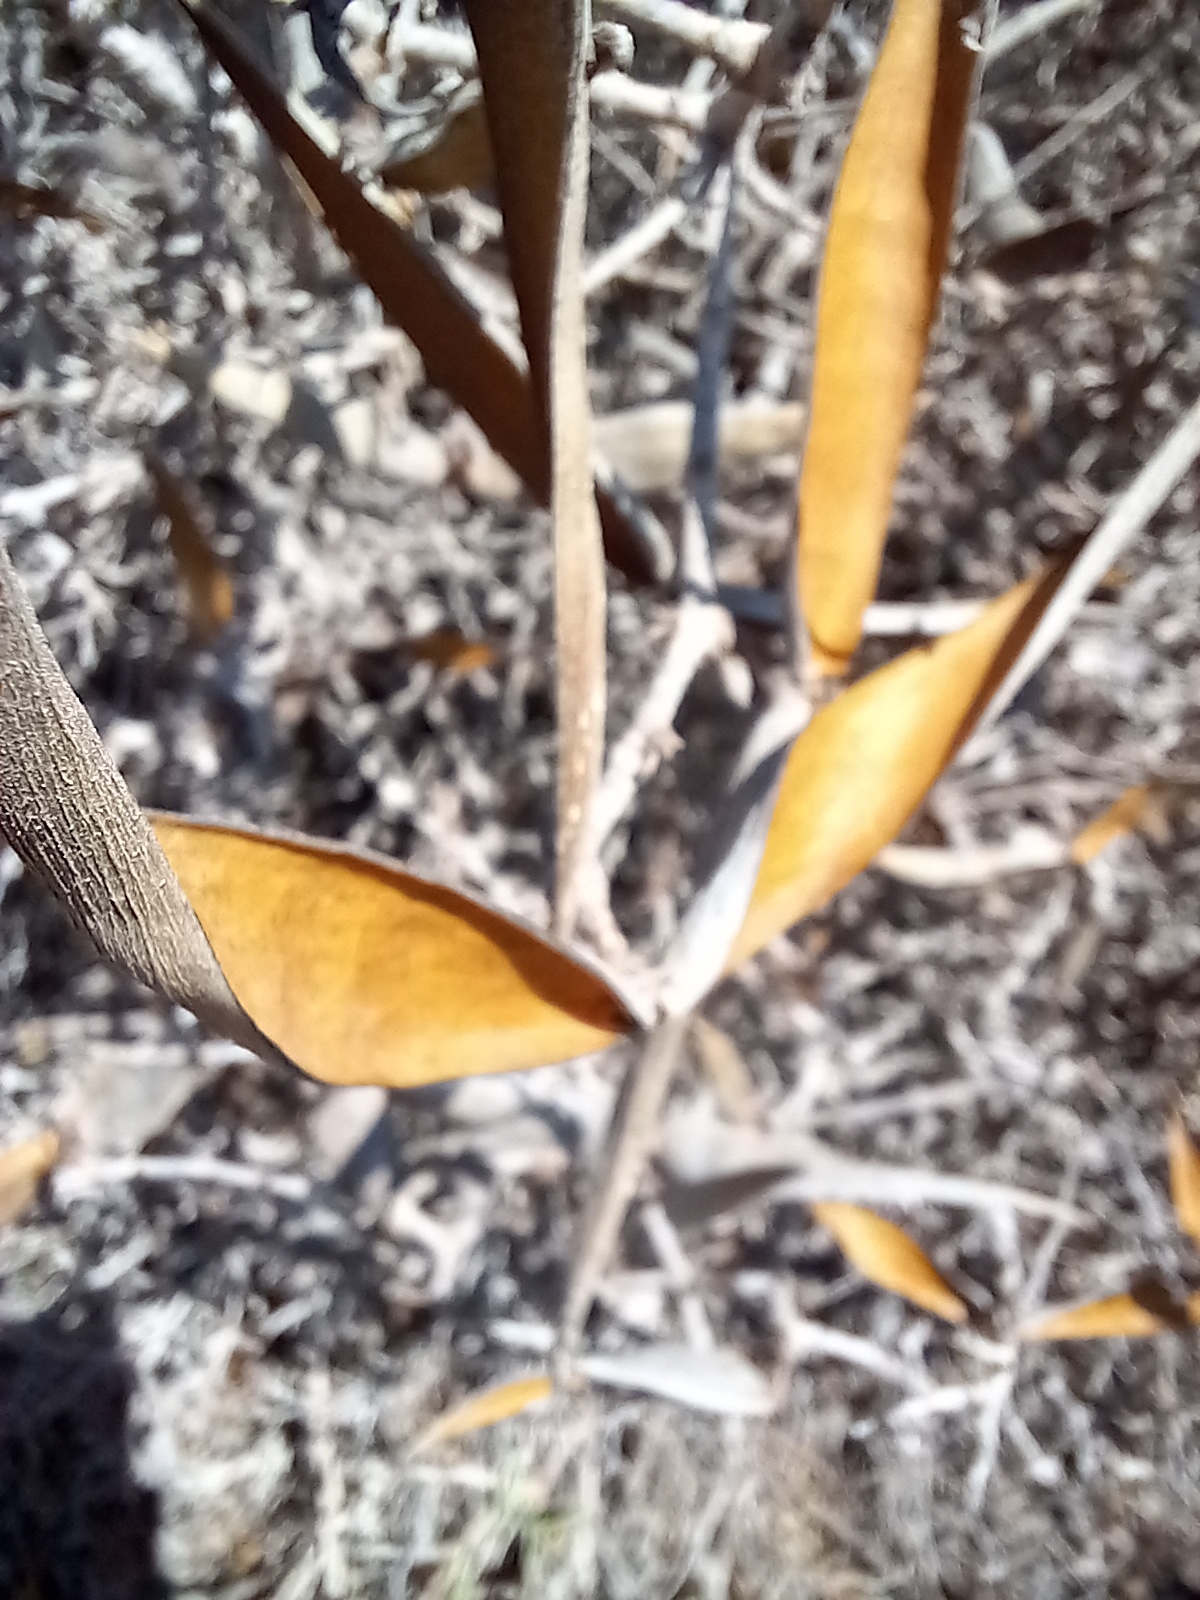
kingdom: Plantae
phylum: Tracheophyta
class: Magnoliopsida
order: Gentianales
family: Apocynaceae
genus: Periploca
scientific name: Periploca laevigata
